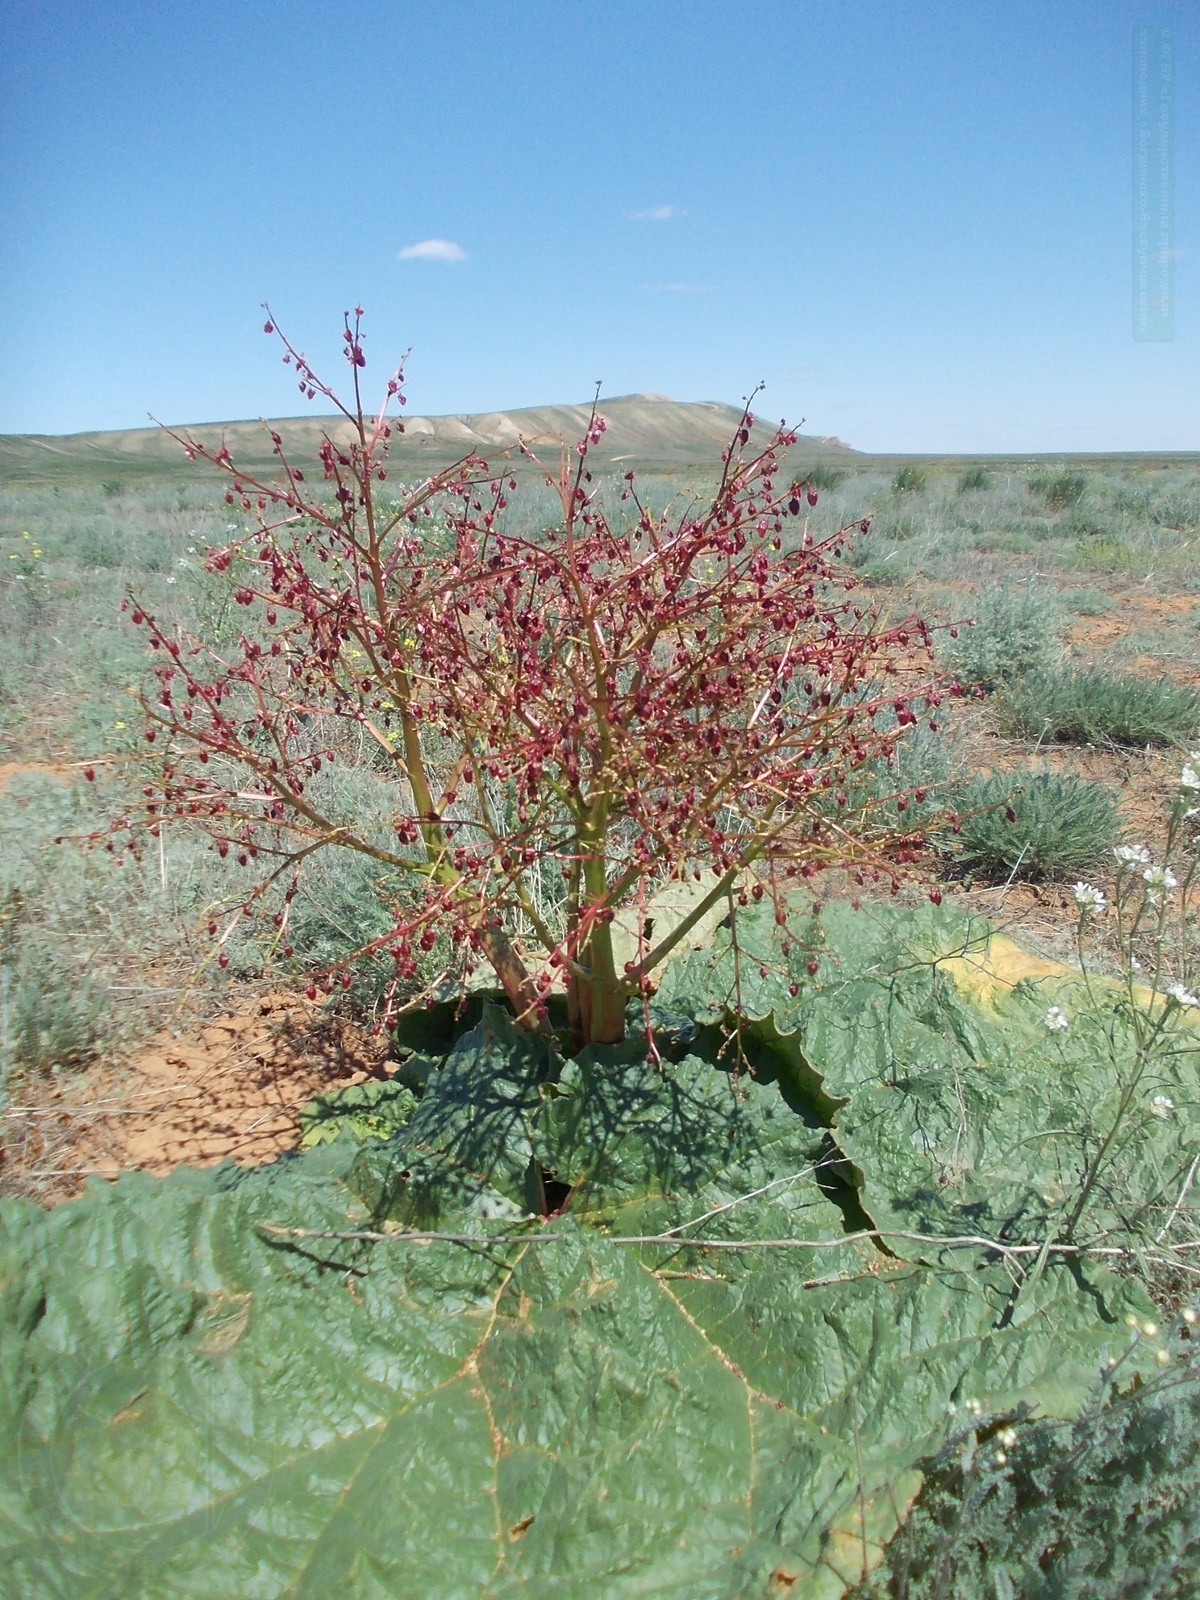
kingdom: Plantae
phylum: Tracheophyta
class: Magnoliopsida
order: Caryophyllales
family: Polygonaceae
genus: Rheum
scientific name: Rheum tataricum
